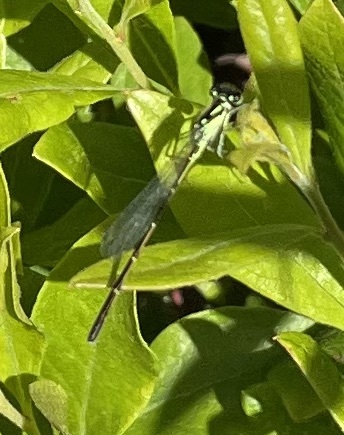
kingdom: Animalia
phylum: Arthropoda
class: Insecta
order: Odonata
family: Coenagrionidae
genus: Ischnura
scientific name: Ischnura posita
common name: Fragile forktail
